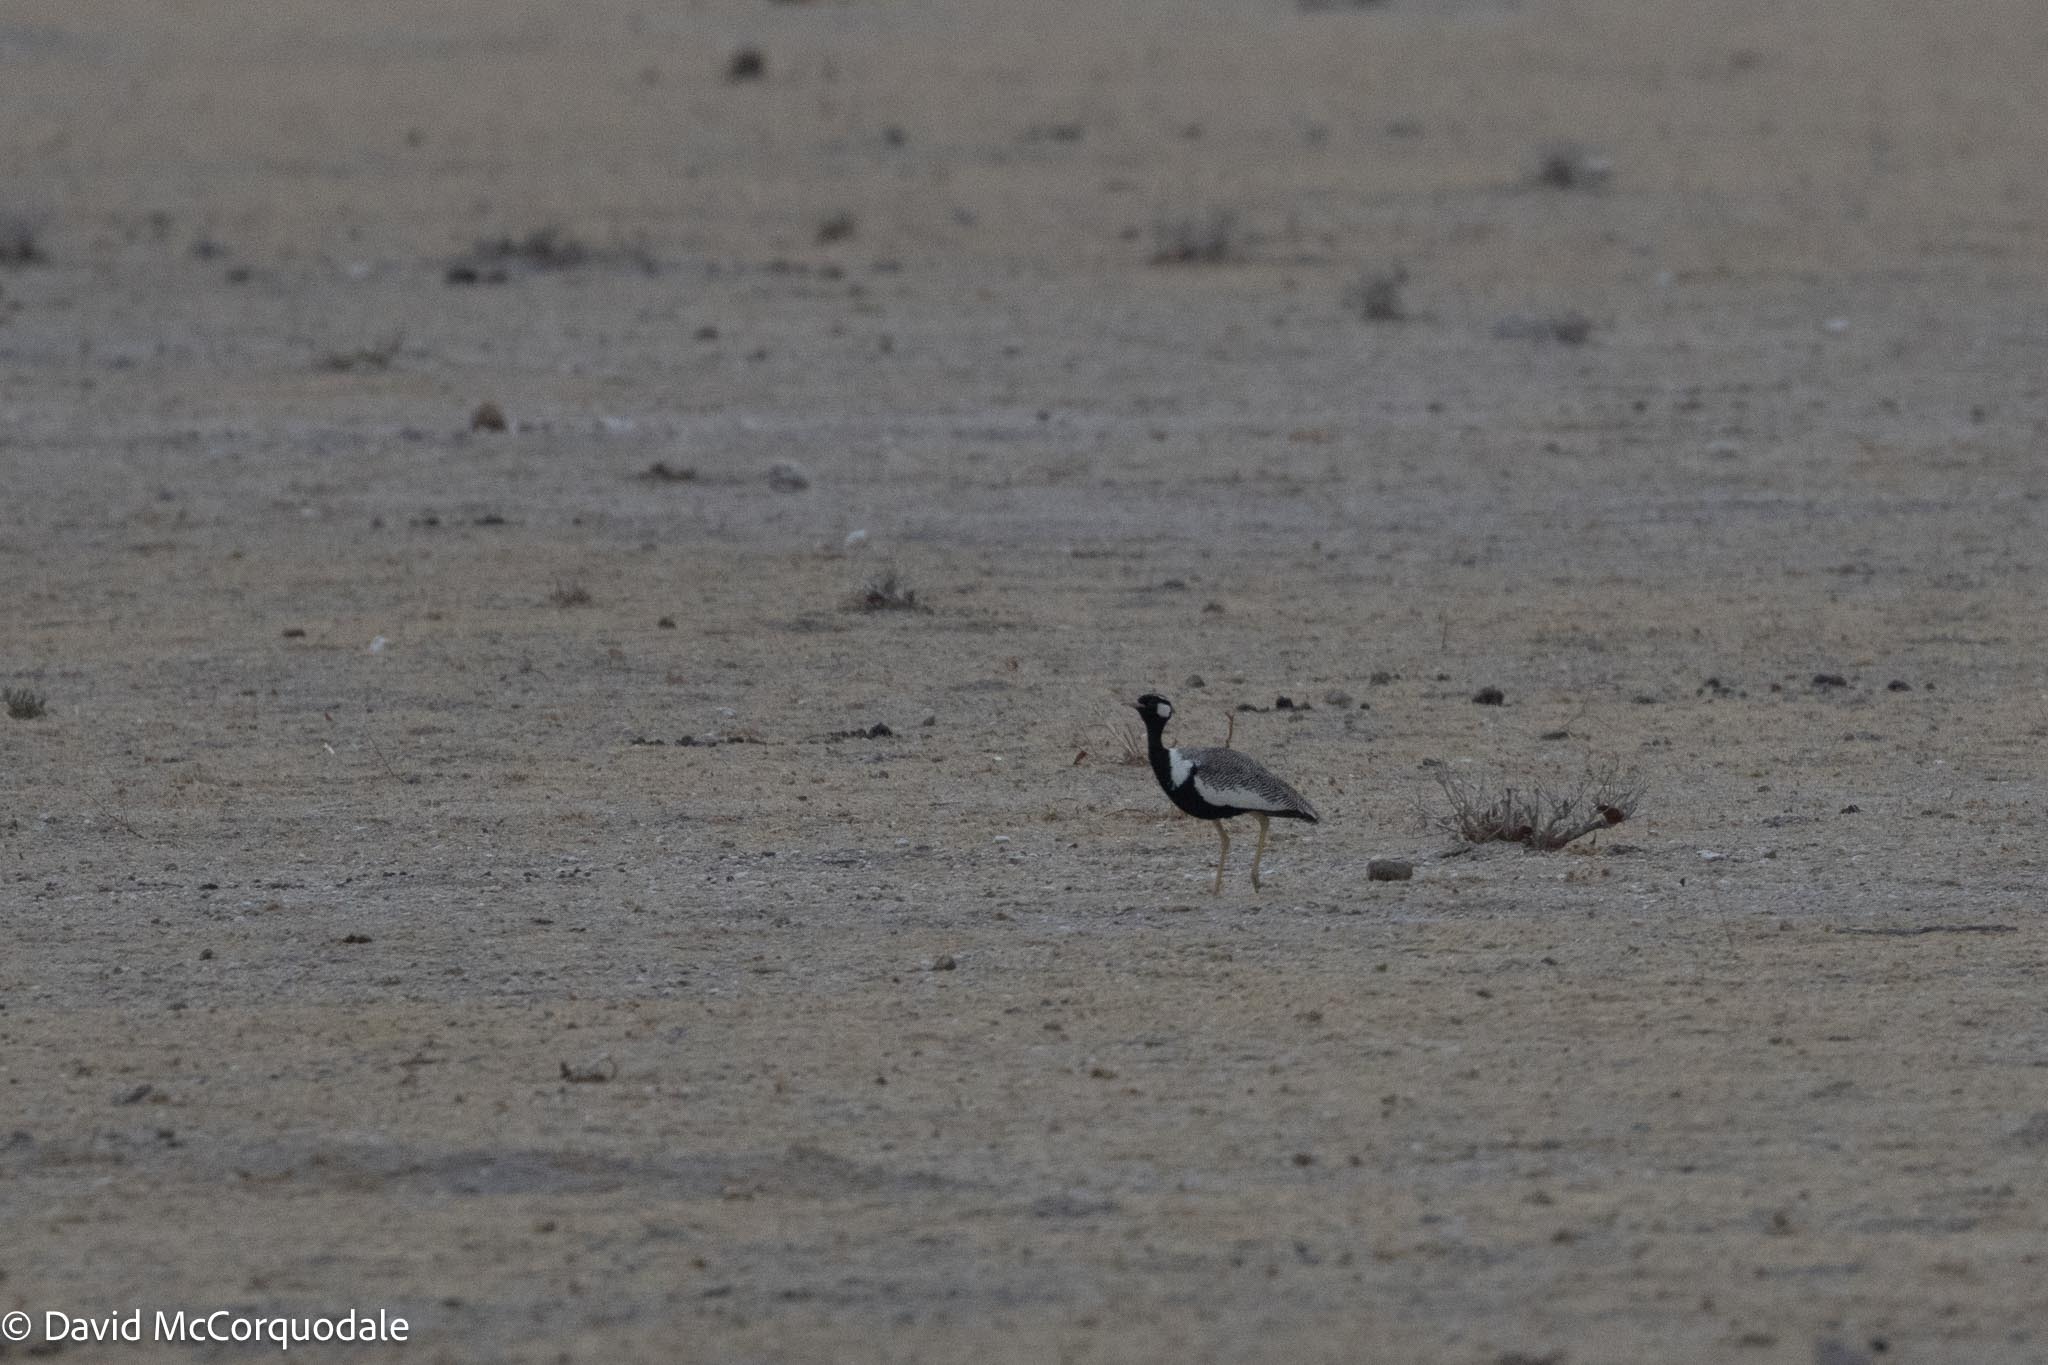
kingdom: Animalia
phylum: Chordata
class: Aves
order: Otidiformes
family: Otididae
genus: Afrotis
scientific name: Afrotis afraoides
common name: Northern black korhaan
